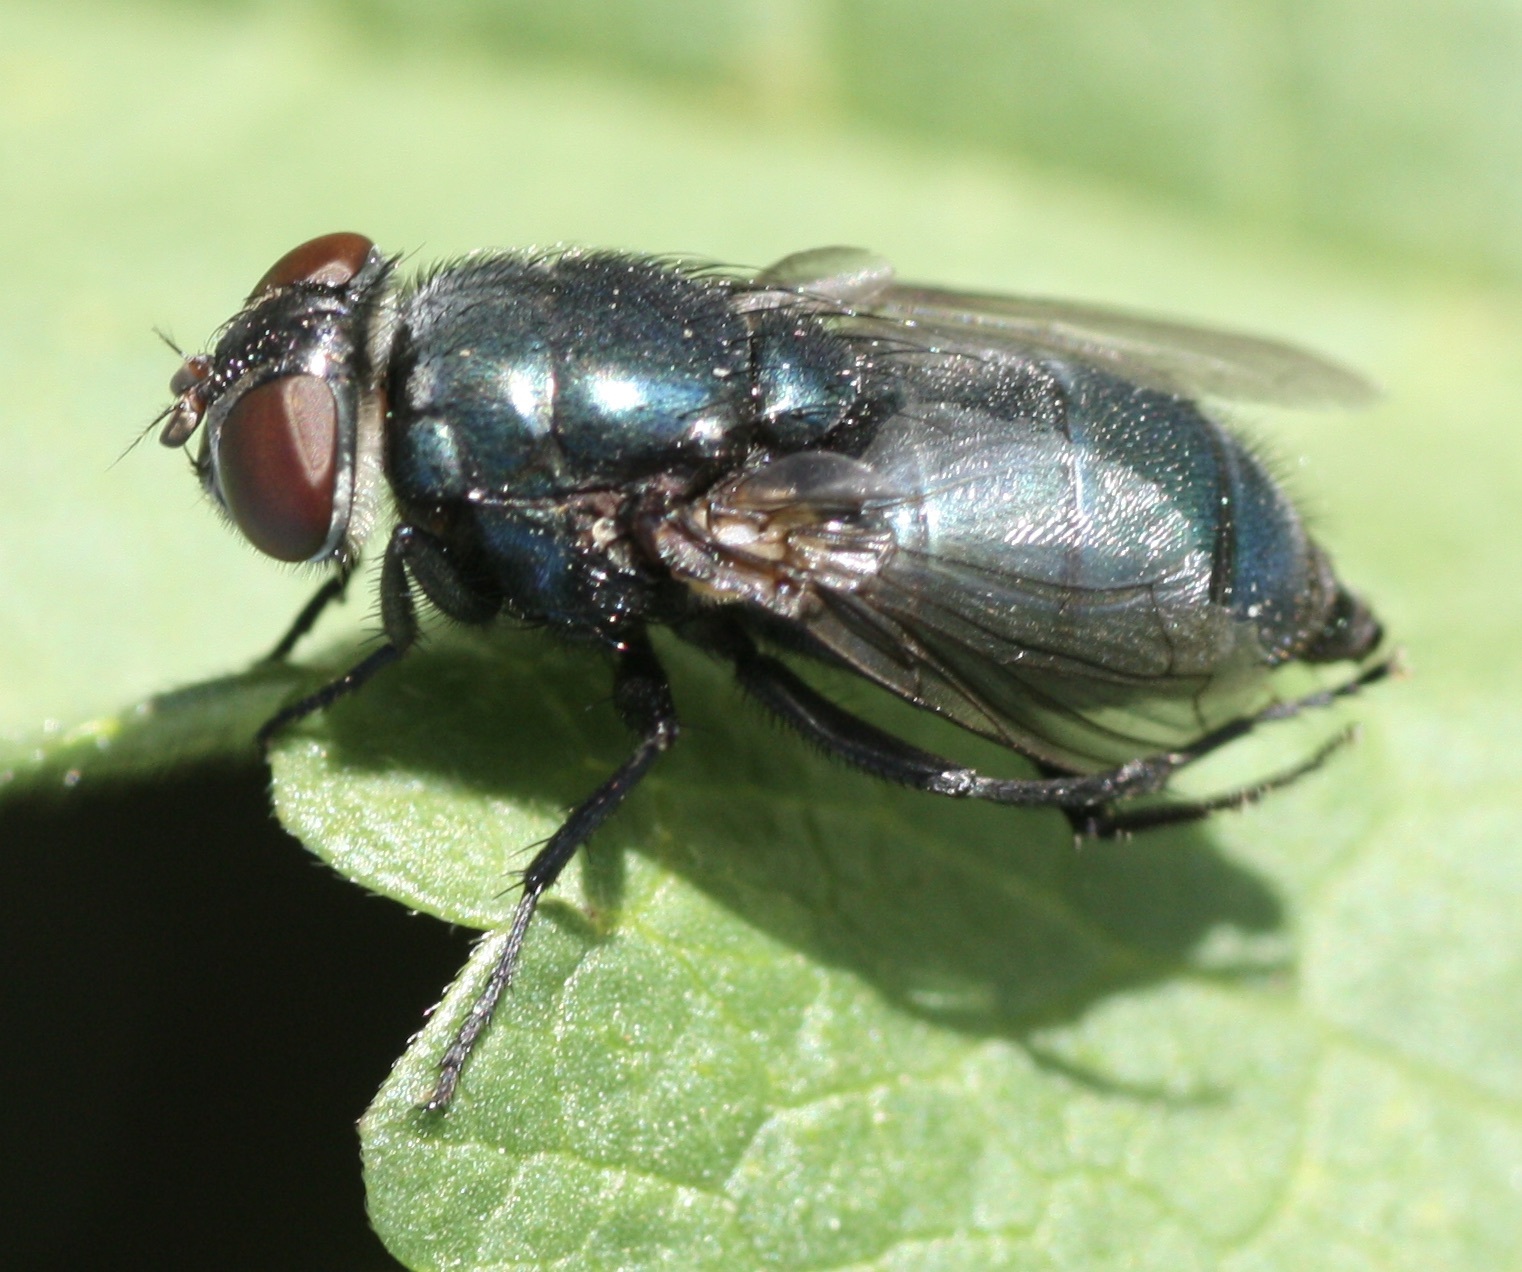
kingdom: Animalia
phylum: Arthropoda
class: Insecta
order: Diptera
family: Calliphoridae
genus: Phormia
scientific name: Phormia regina
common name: Black blow fly
